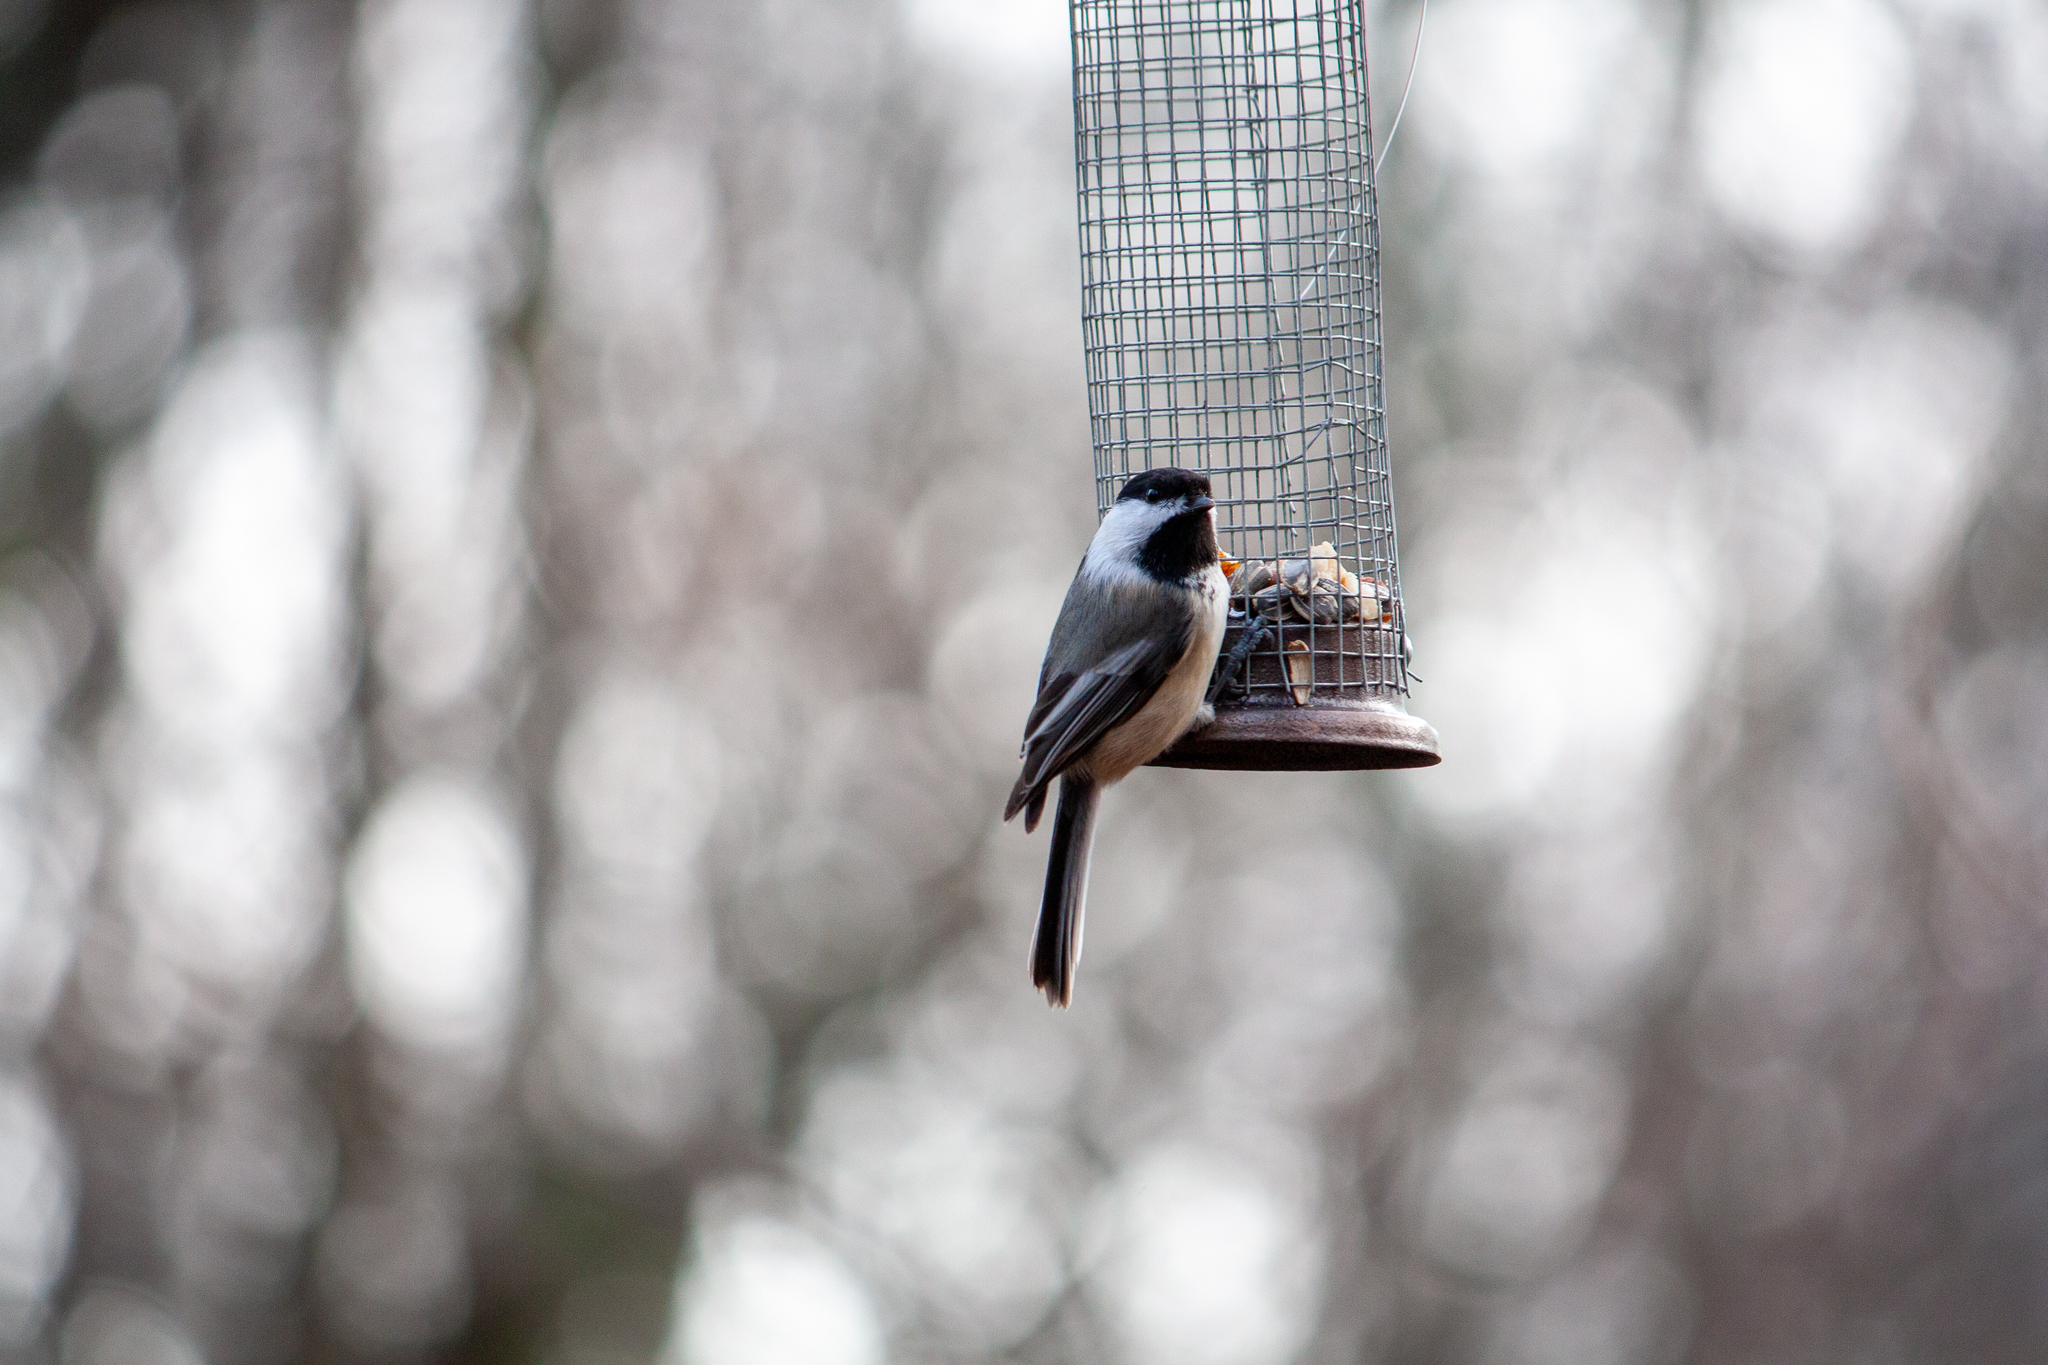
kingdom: Animalia
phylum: Chordata
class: Aves
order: Passeriformes
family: Paridae
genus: Poecile
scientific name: Poecile atricapillus
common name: Black-capped chickadee
